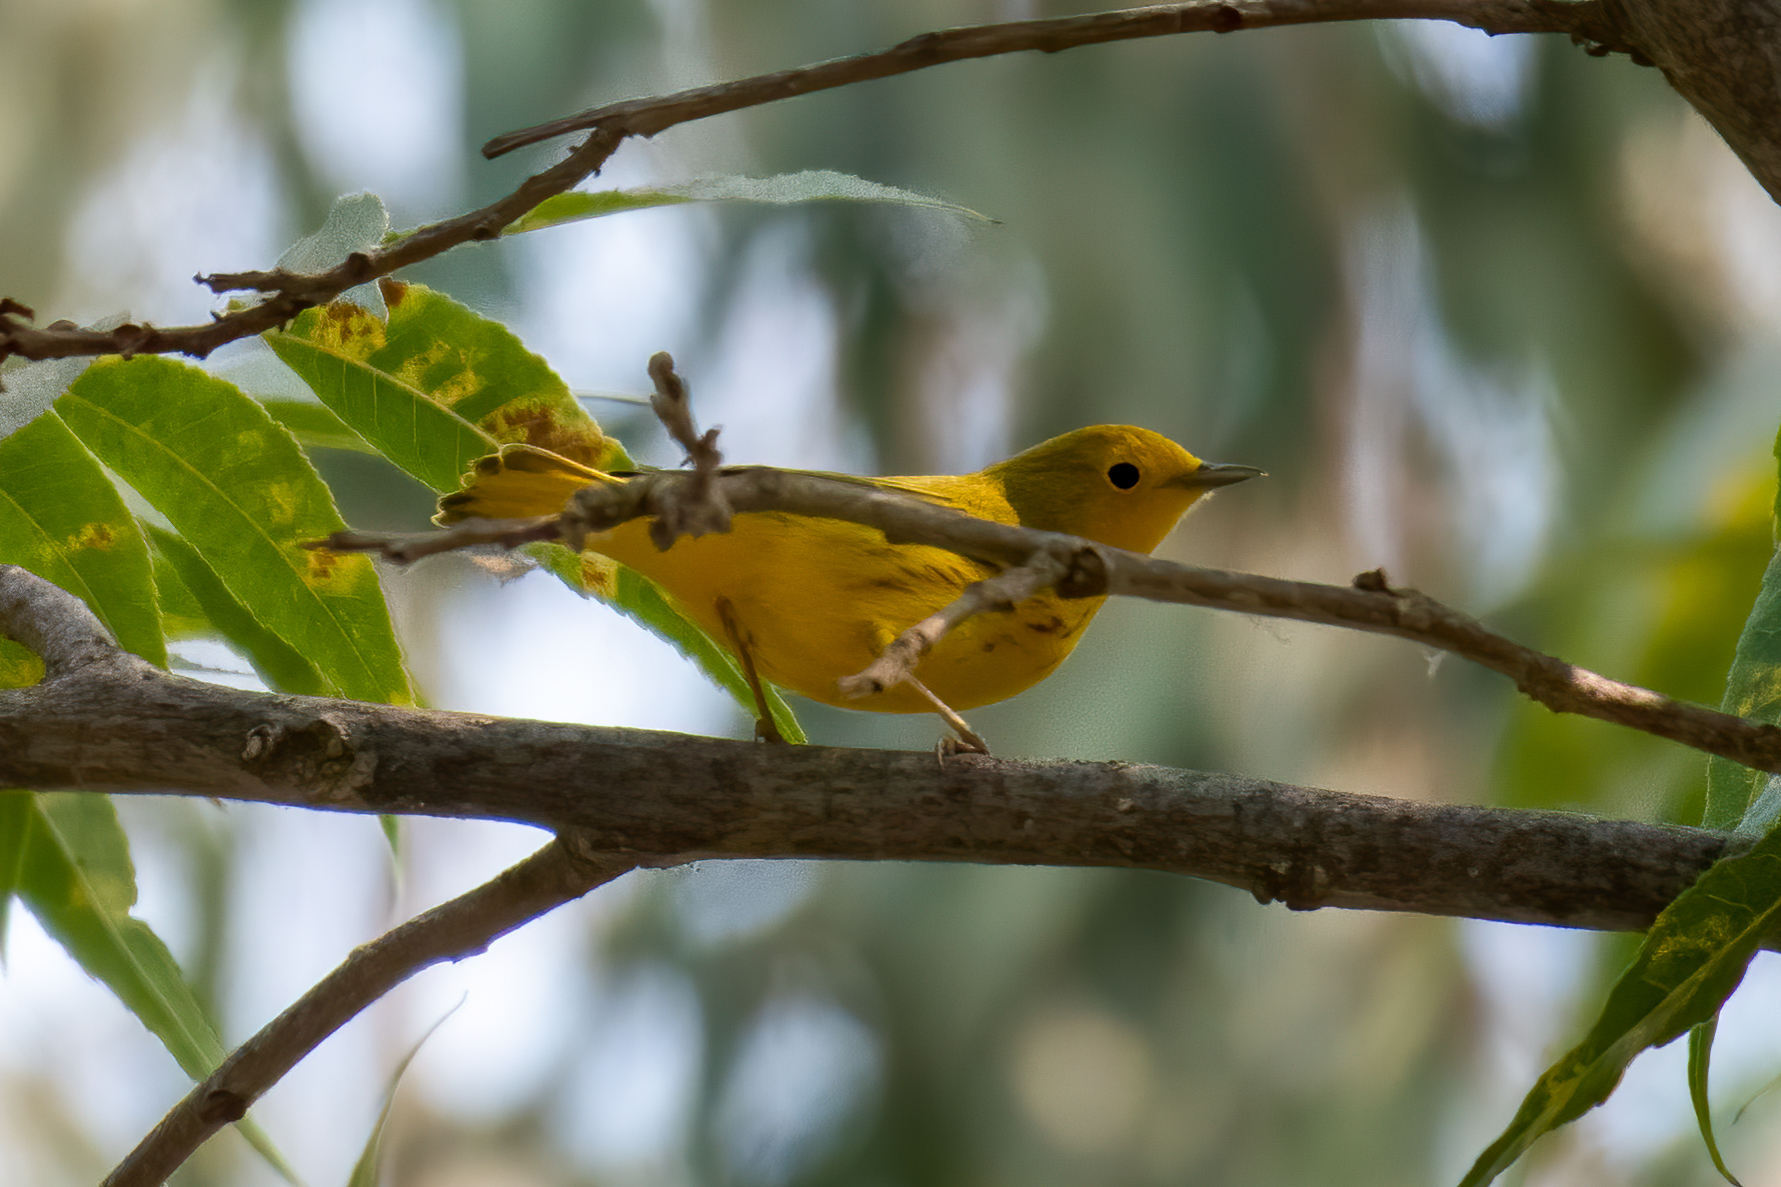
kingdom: Animalia
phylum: Chordata
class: Aves
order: Passeriformes
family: Parulidae
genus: Setophaga
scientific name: Setophaga petechia
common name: Yellow warbler
